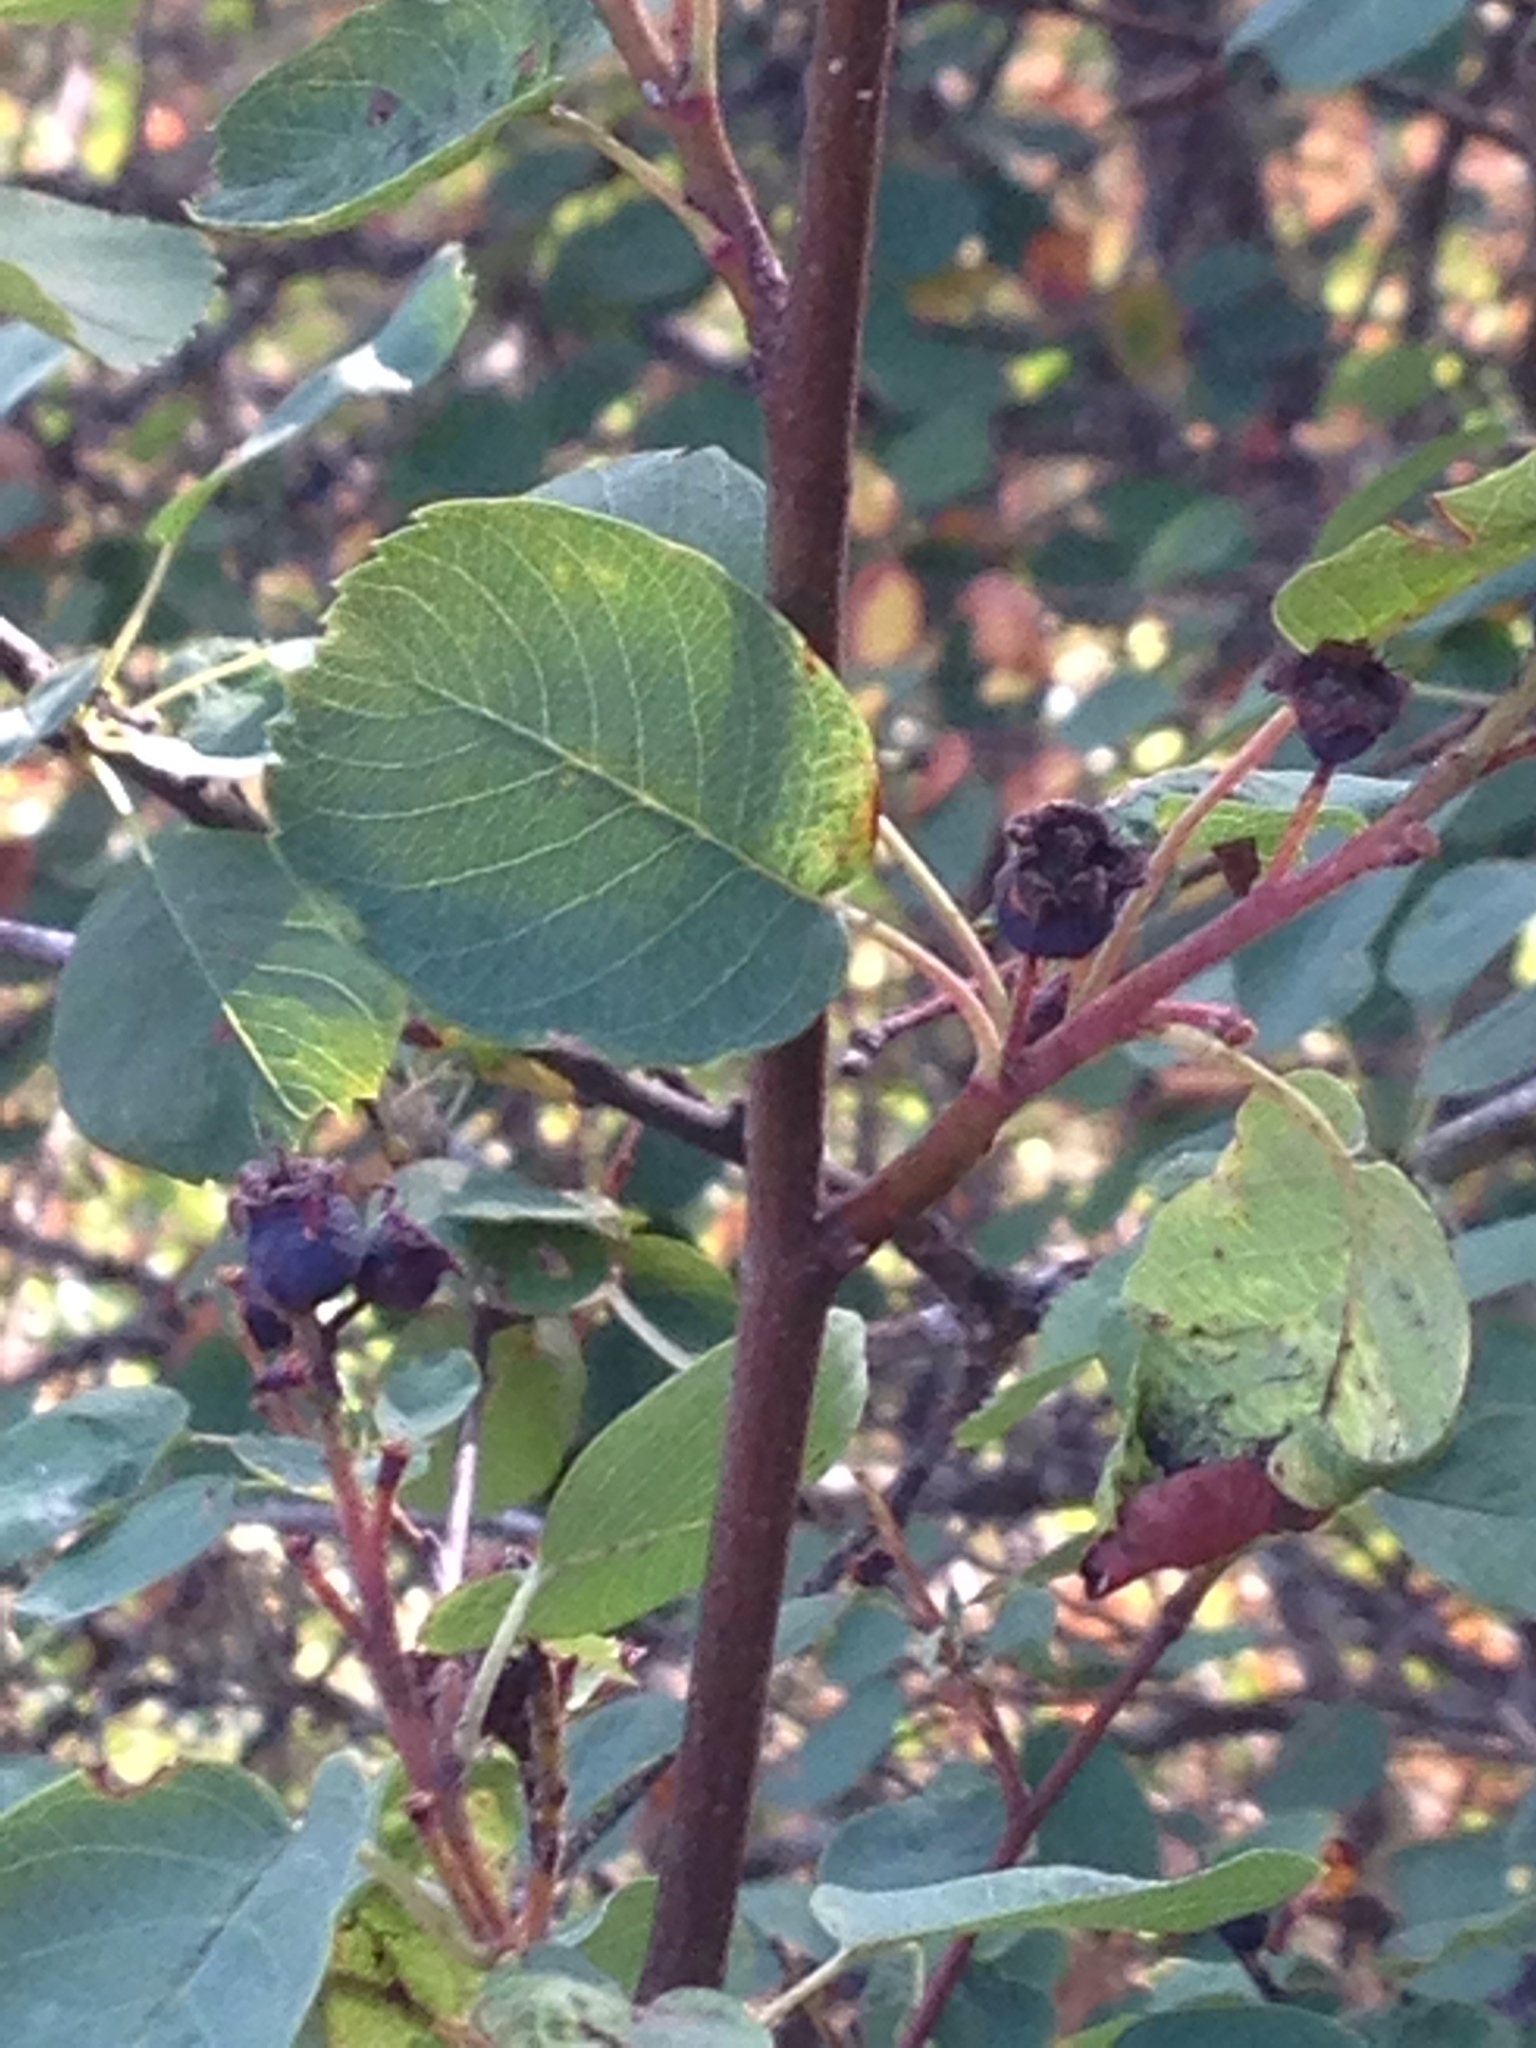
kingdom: Plantae
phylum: Tracheophyta
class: Magnoliopsida
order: Rosales
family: Rosaceae
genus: Amelanchier
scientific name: Amelanchier alnifolia
